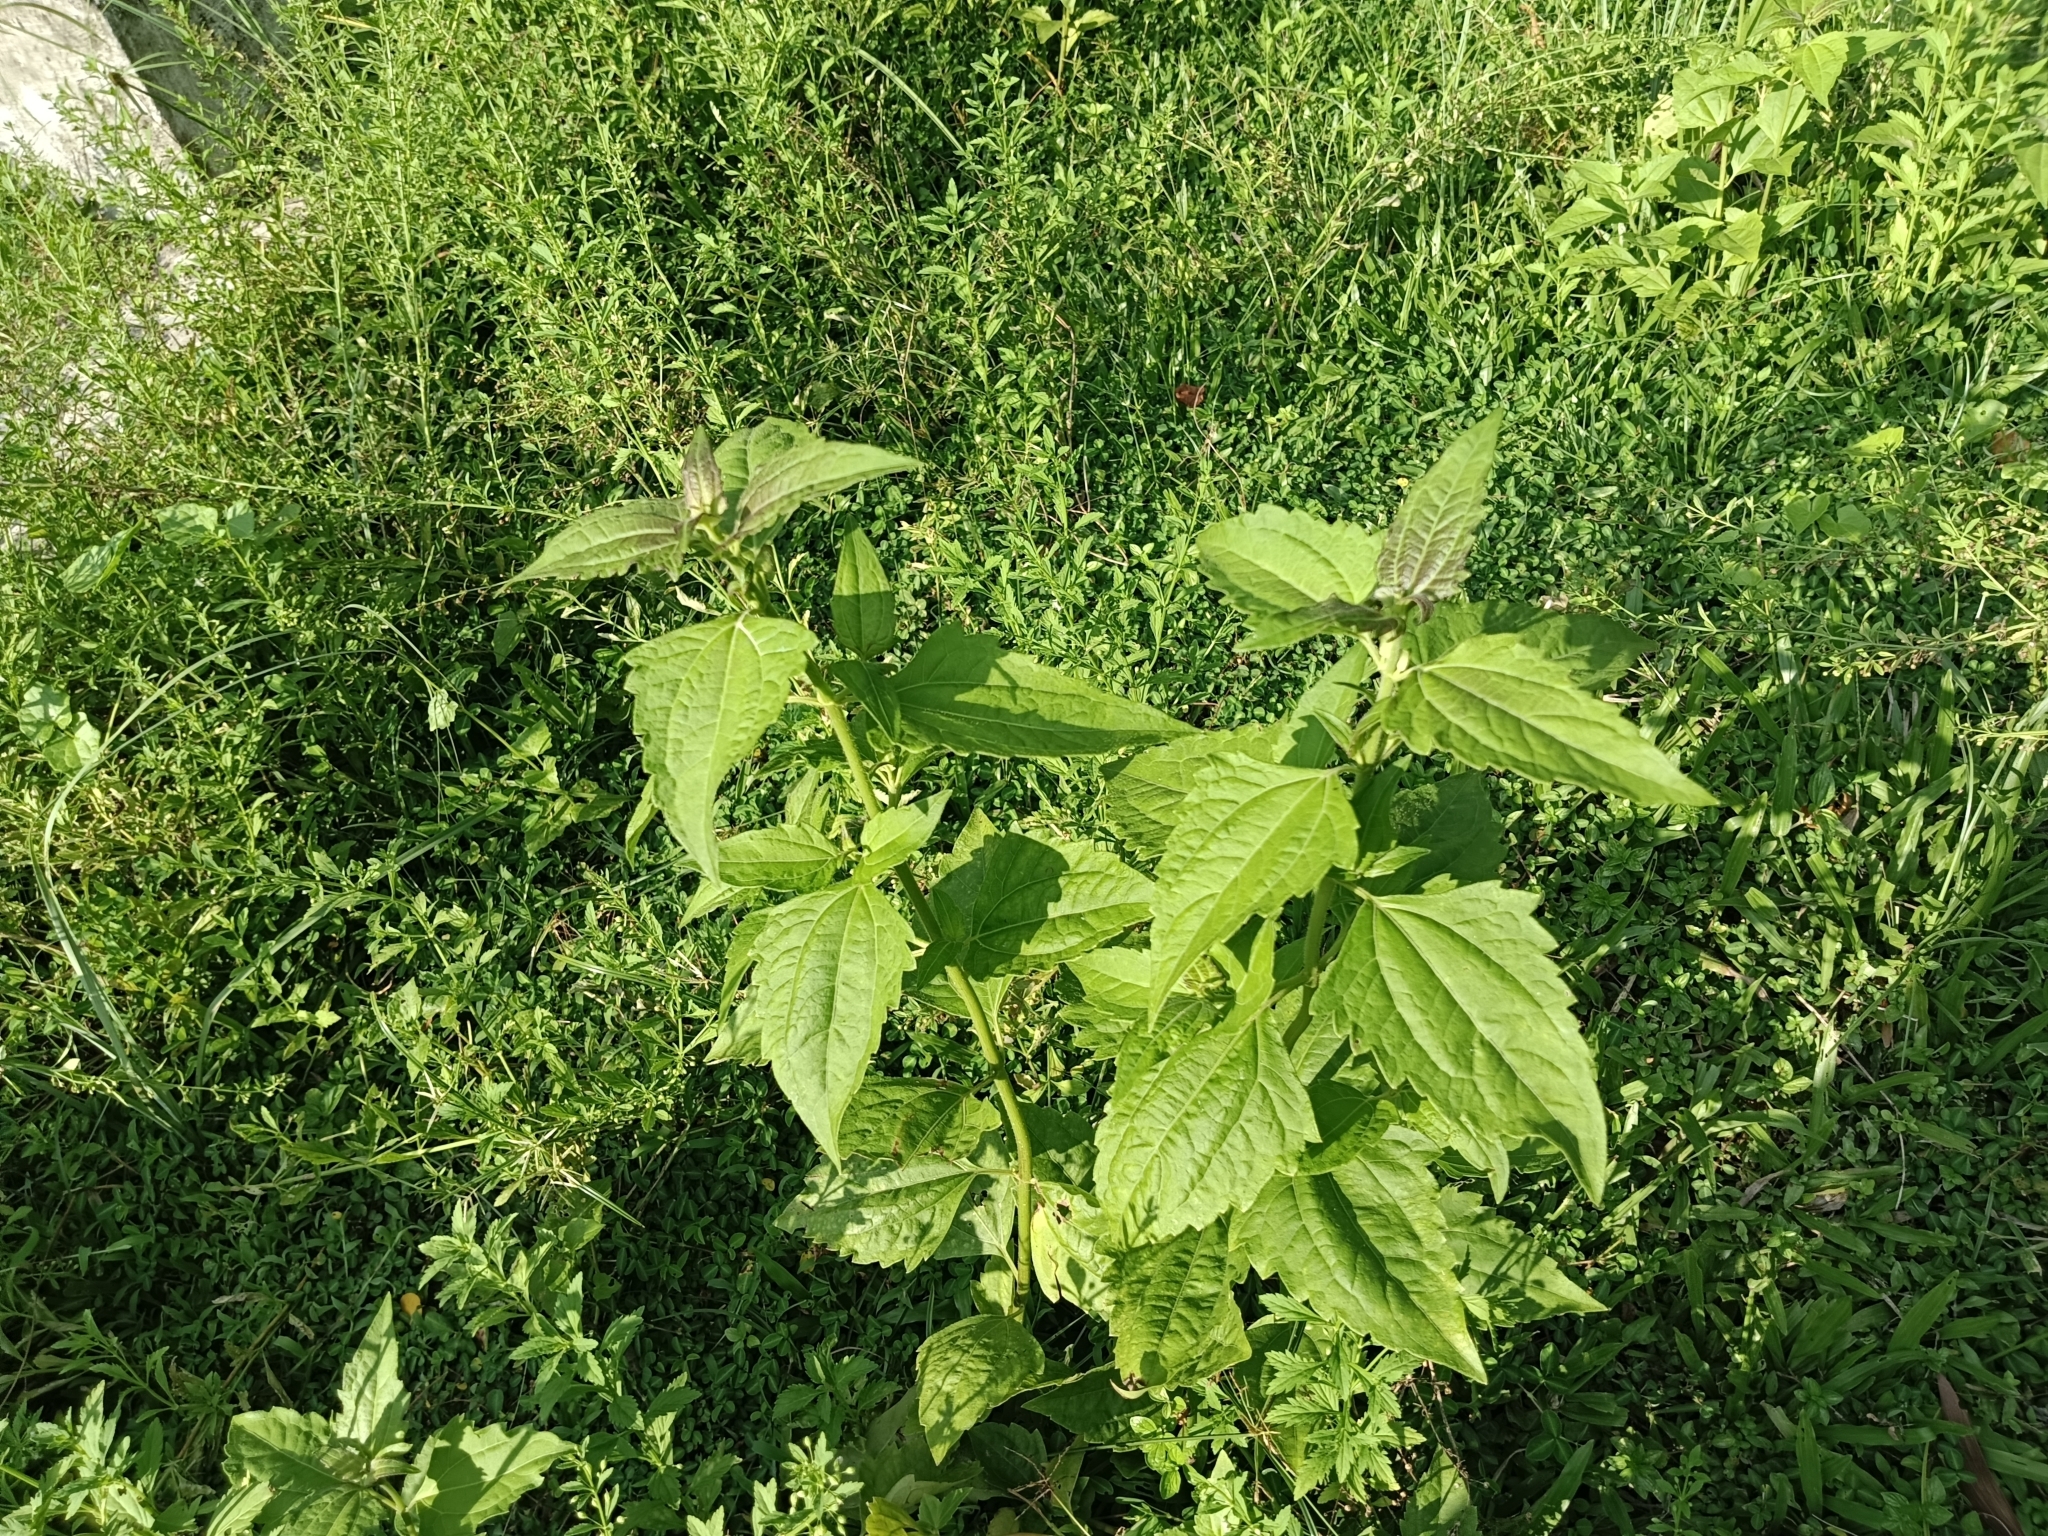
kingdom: Plantae
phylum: Tracheophyta
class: Magnoliopsida
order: Asterales
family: Asteraceae
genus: Chromolaena
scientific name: Chromolaena odorata
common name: Siamweed
